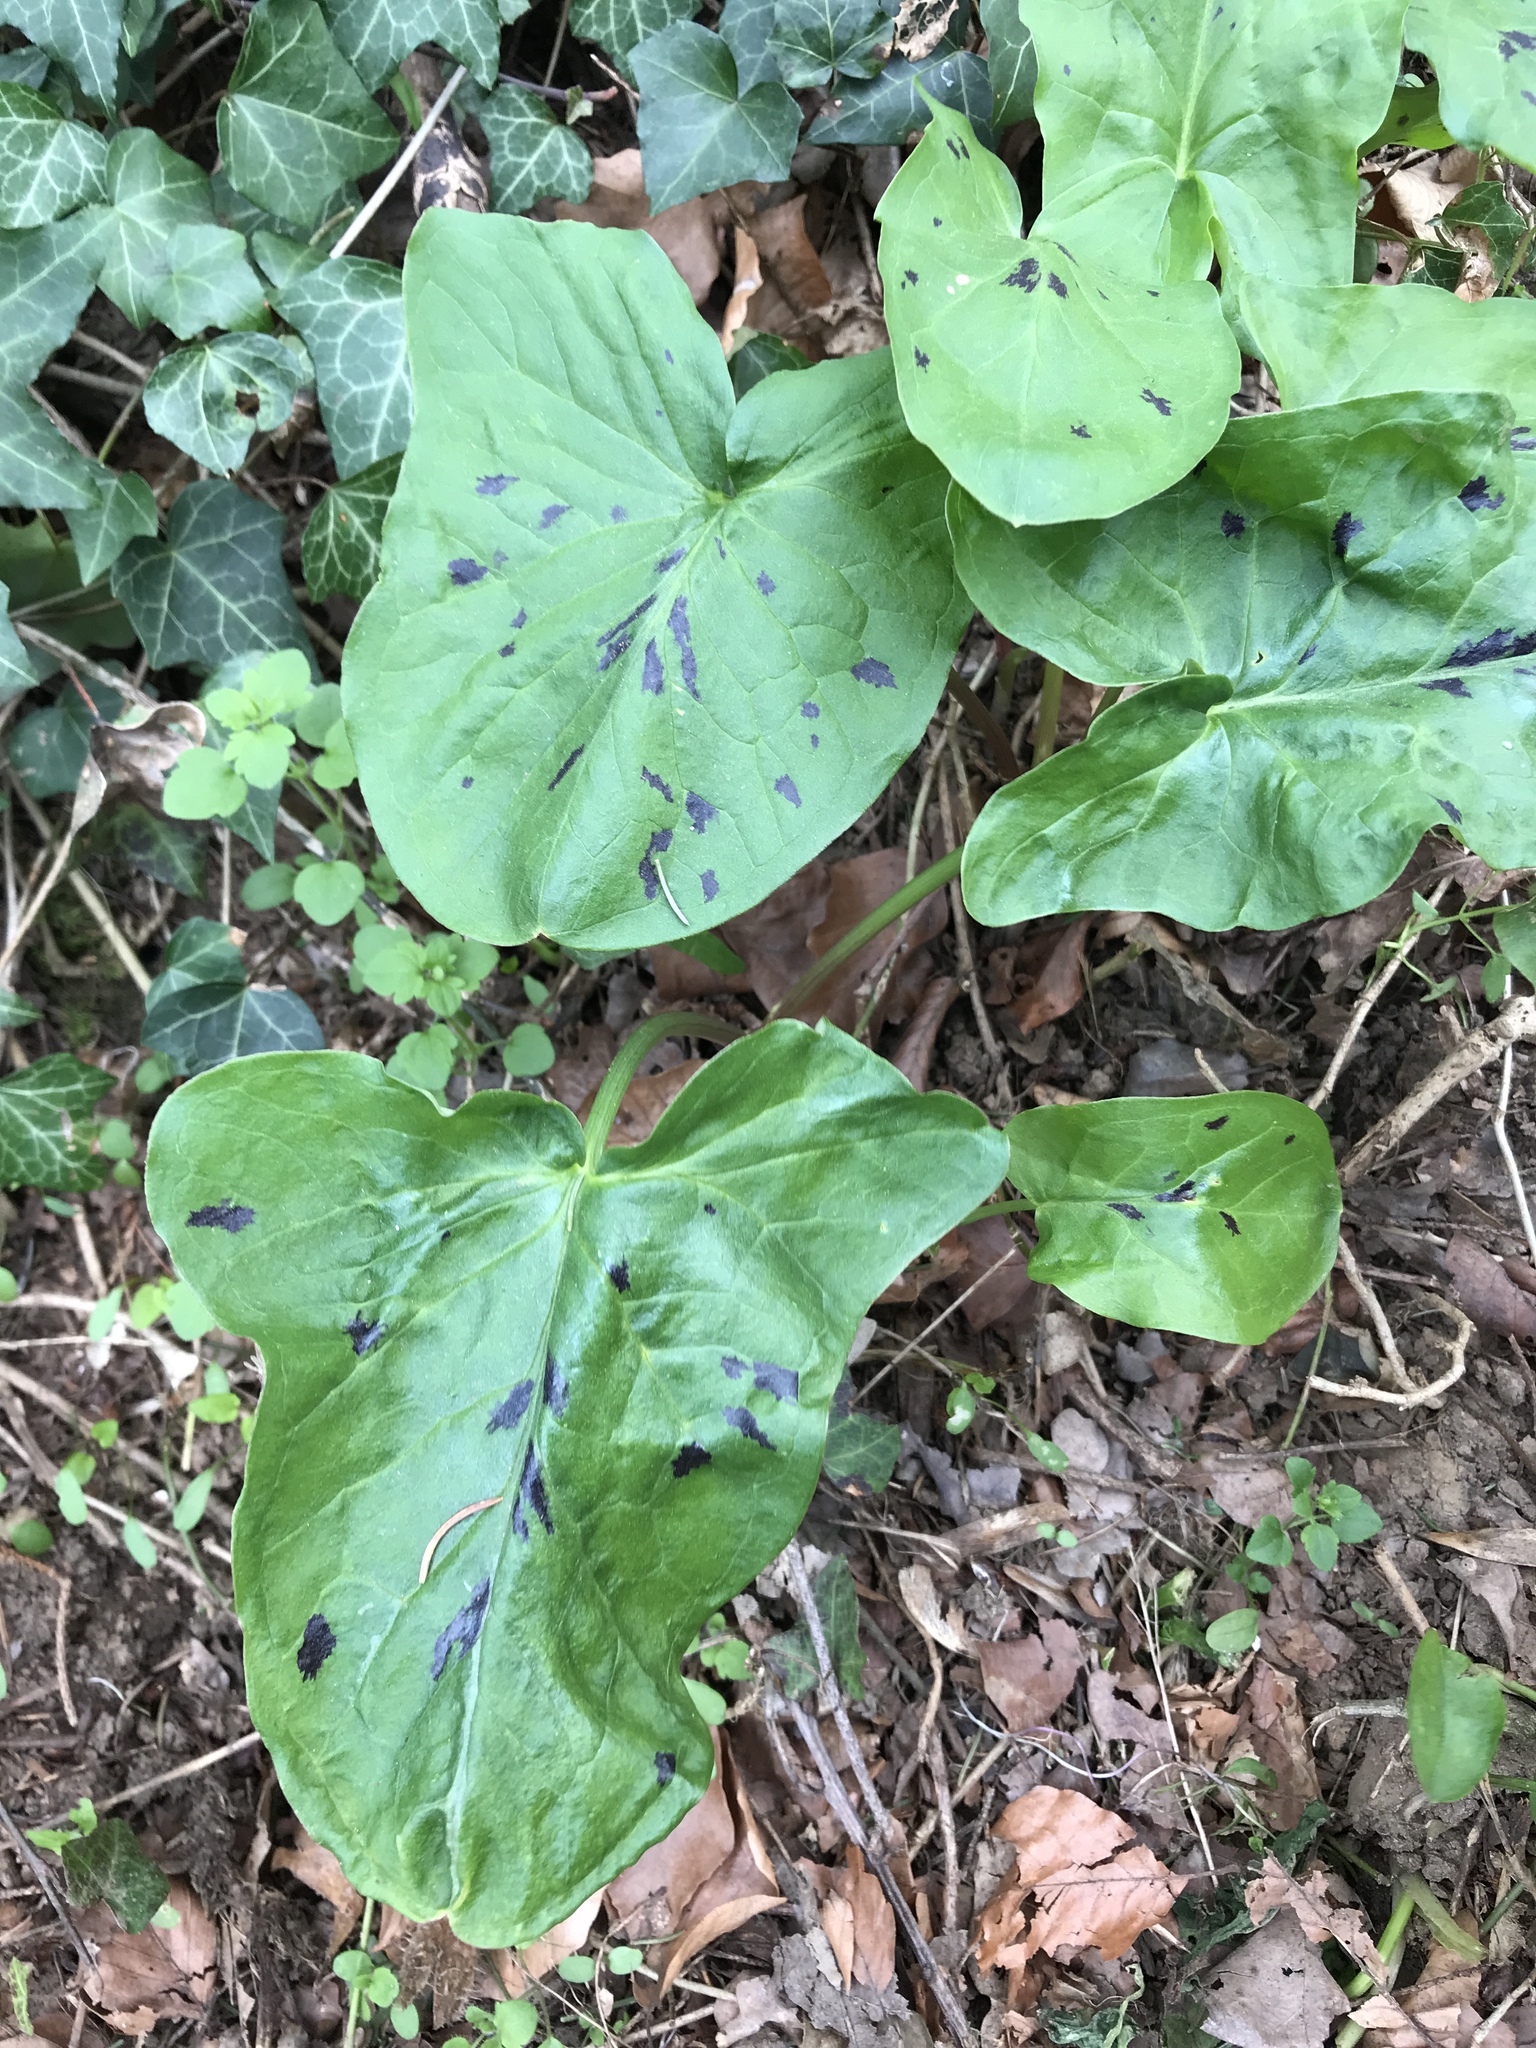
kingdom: Plantae
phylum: Tracheophyta
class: Liliopsida
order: Alismatales
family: Araceae
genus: Arum
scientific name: Arum maculatum
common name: Lords-and-ladies
